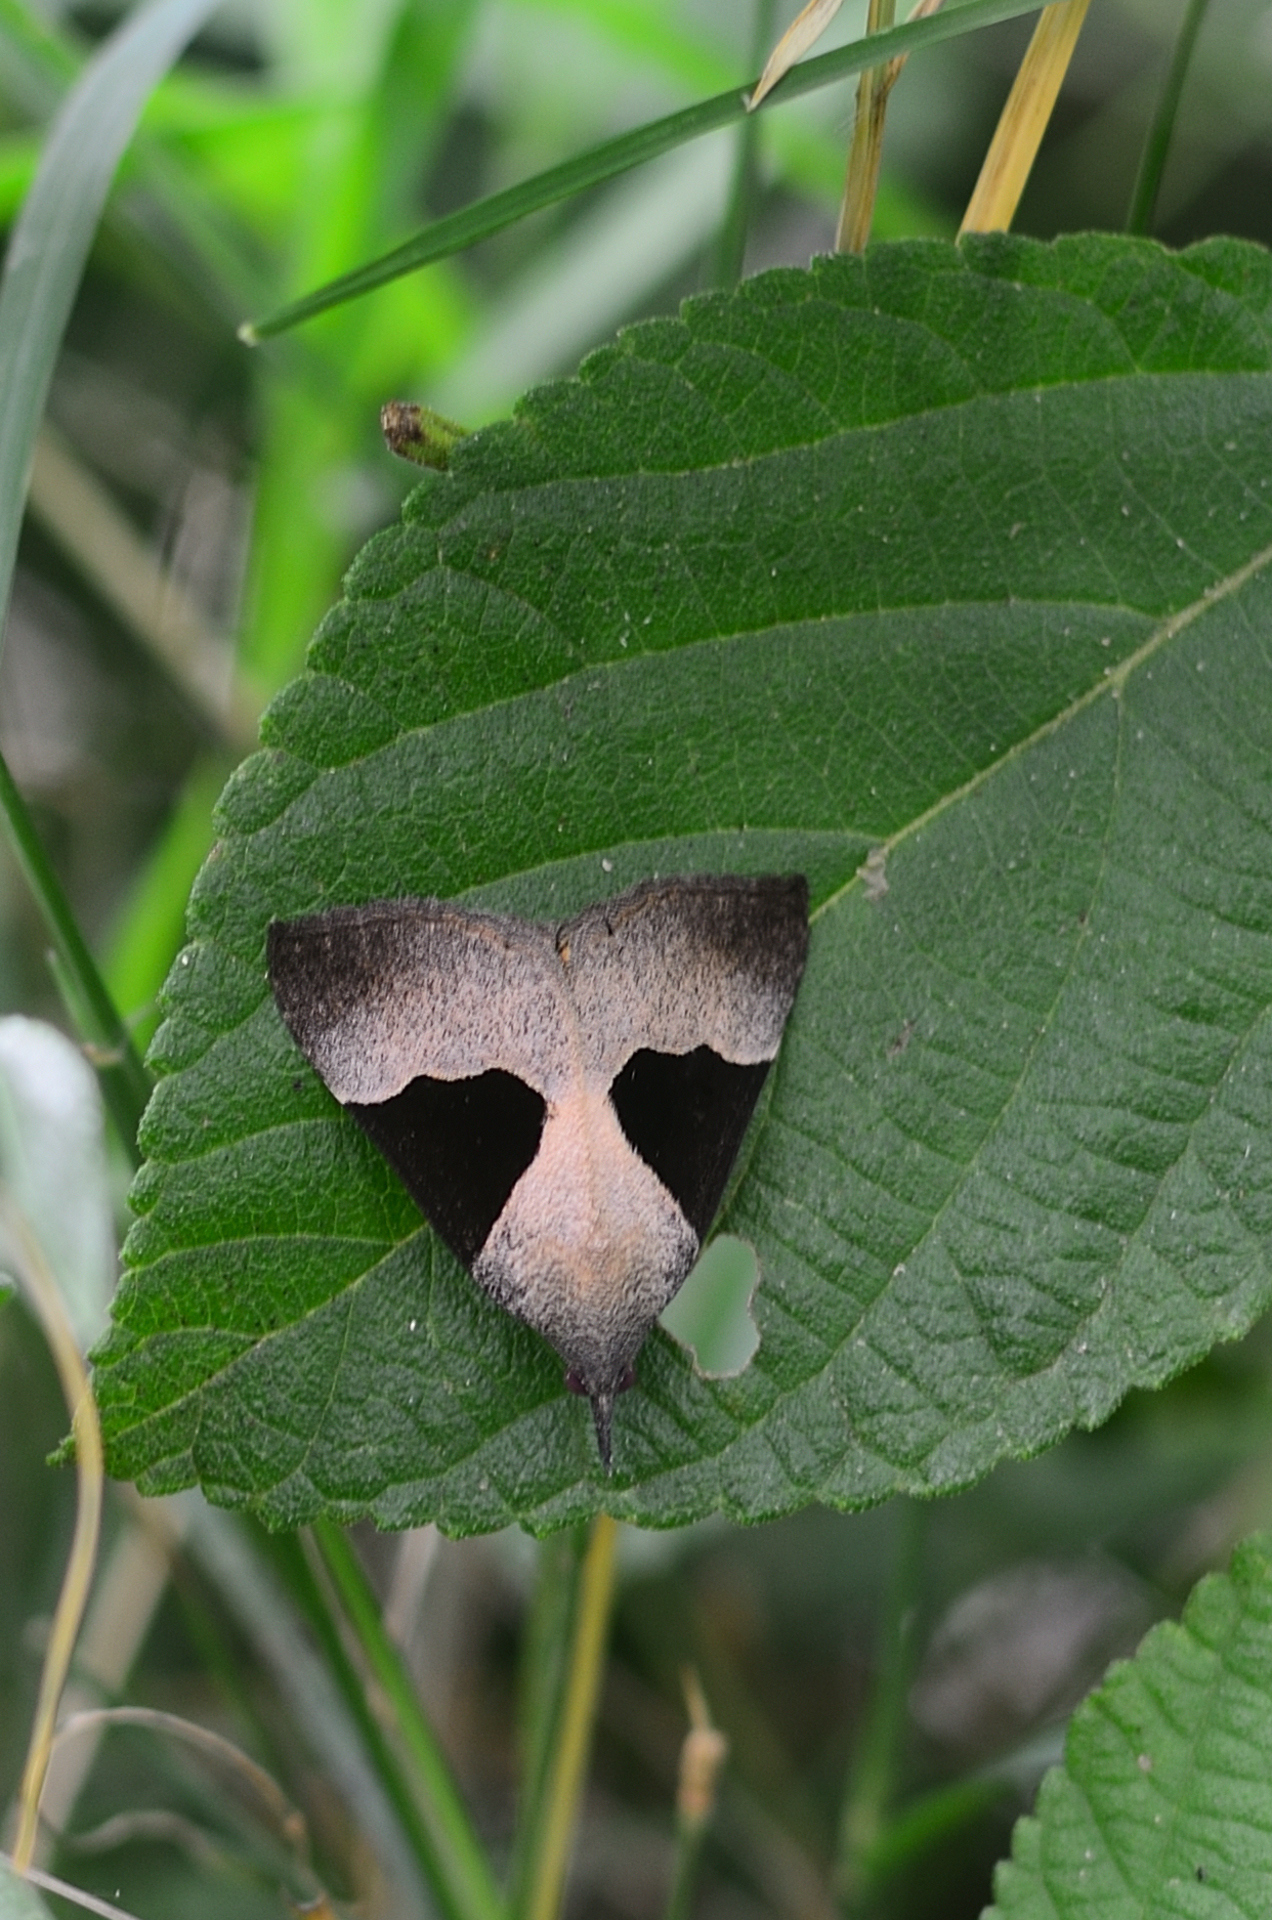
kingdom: Animalia
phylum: Arthropoda
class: Insecta
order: Lepidoptera
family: Erebidae
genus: Hypena
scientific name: Hypena Dichromia sagitta
